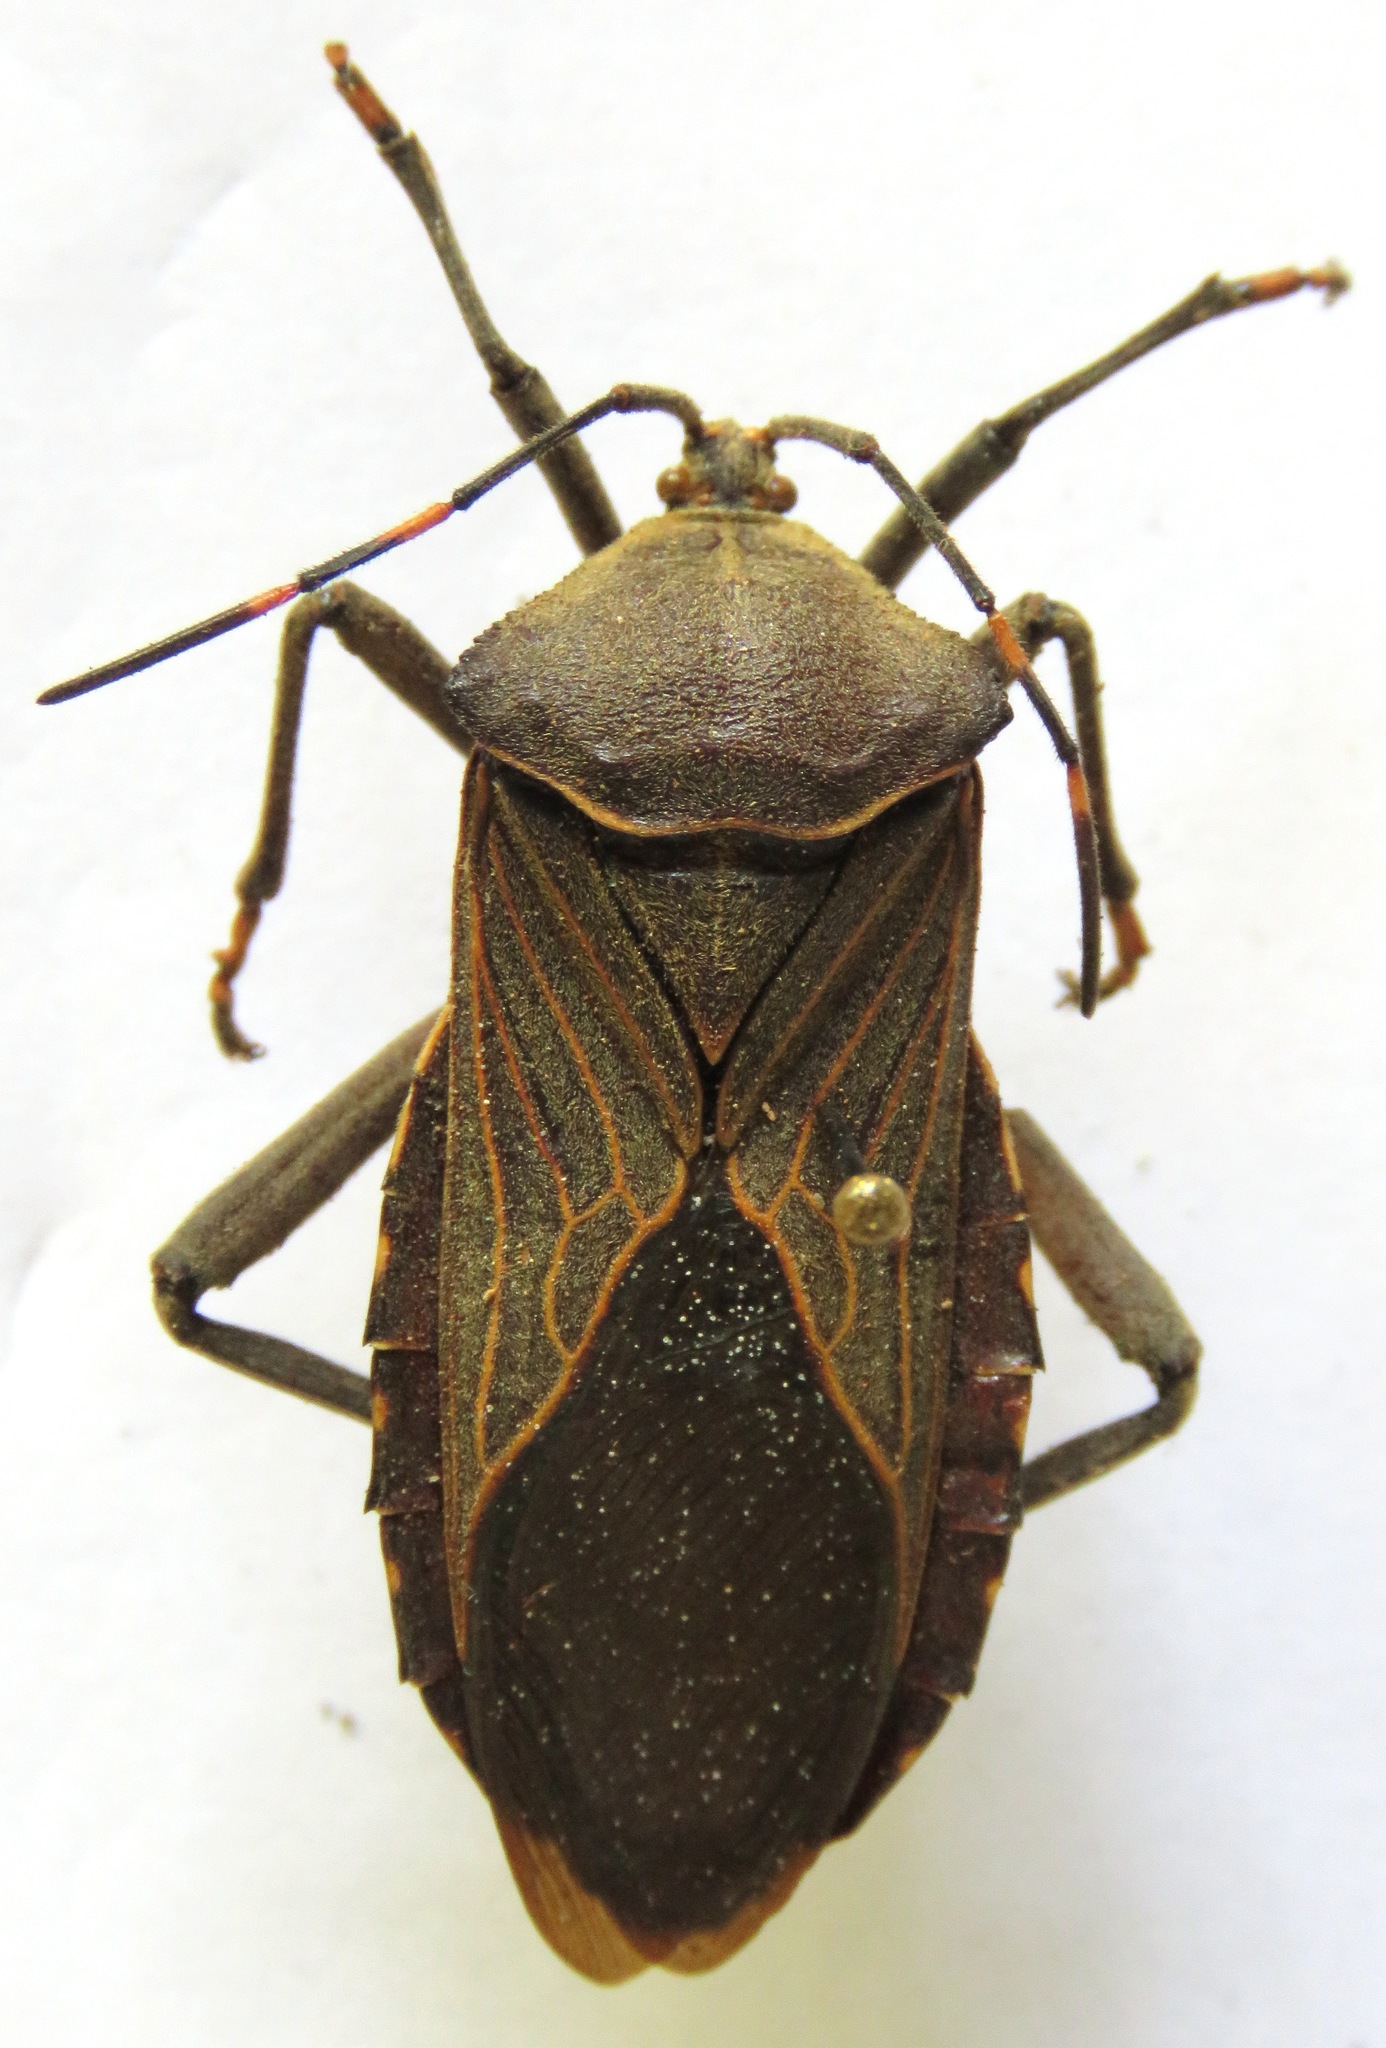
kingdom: Animalia
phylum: Arthropoda
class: Insecta
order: Hemiptera
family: Coreidae
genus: Pachylis
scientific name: Pachylis nervosus
